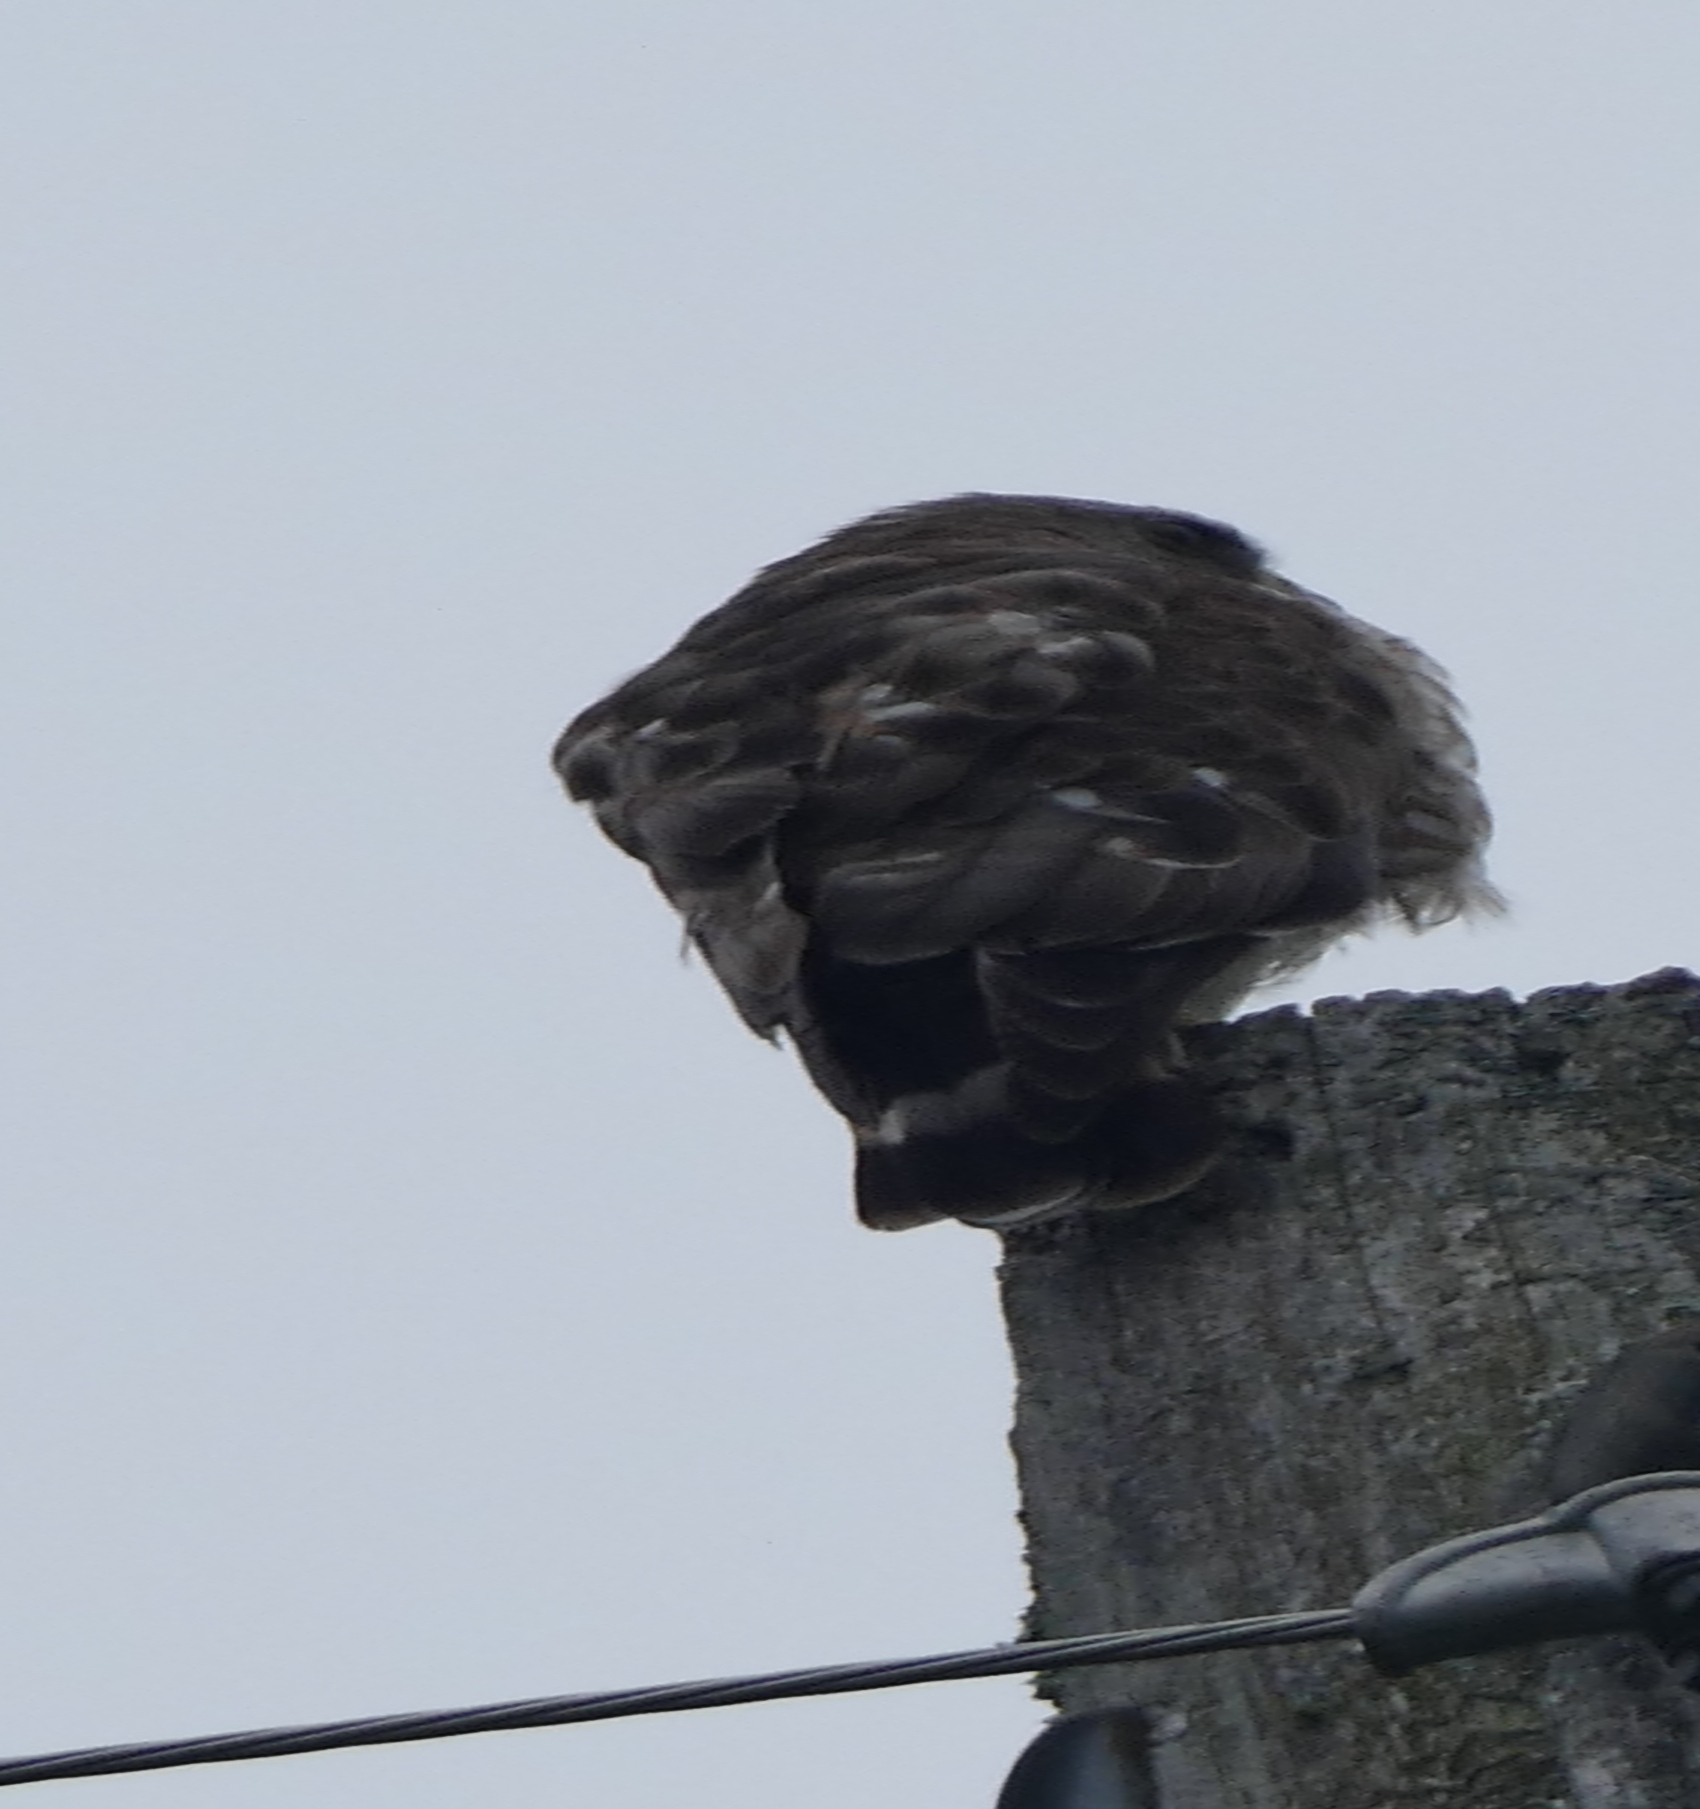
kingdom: Animalia
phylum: Chordata
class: Aves
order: Accipitriformes
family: Accipitridae
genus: Buteo
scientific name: Buteo platypterus
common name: Broad-winged hawk
